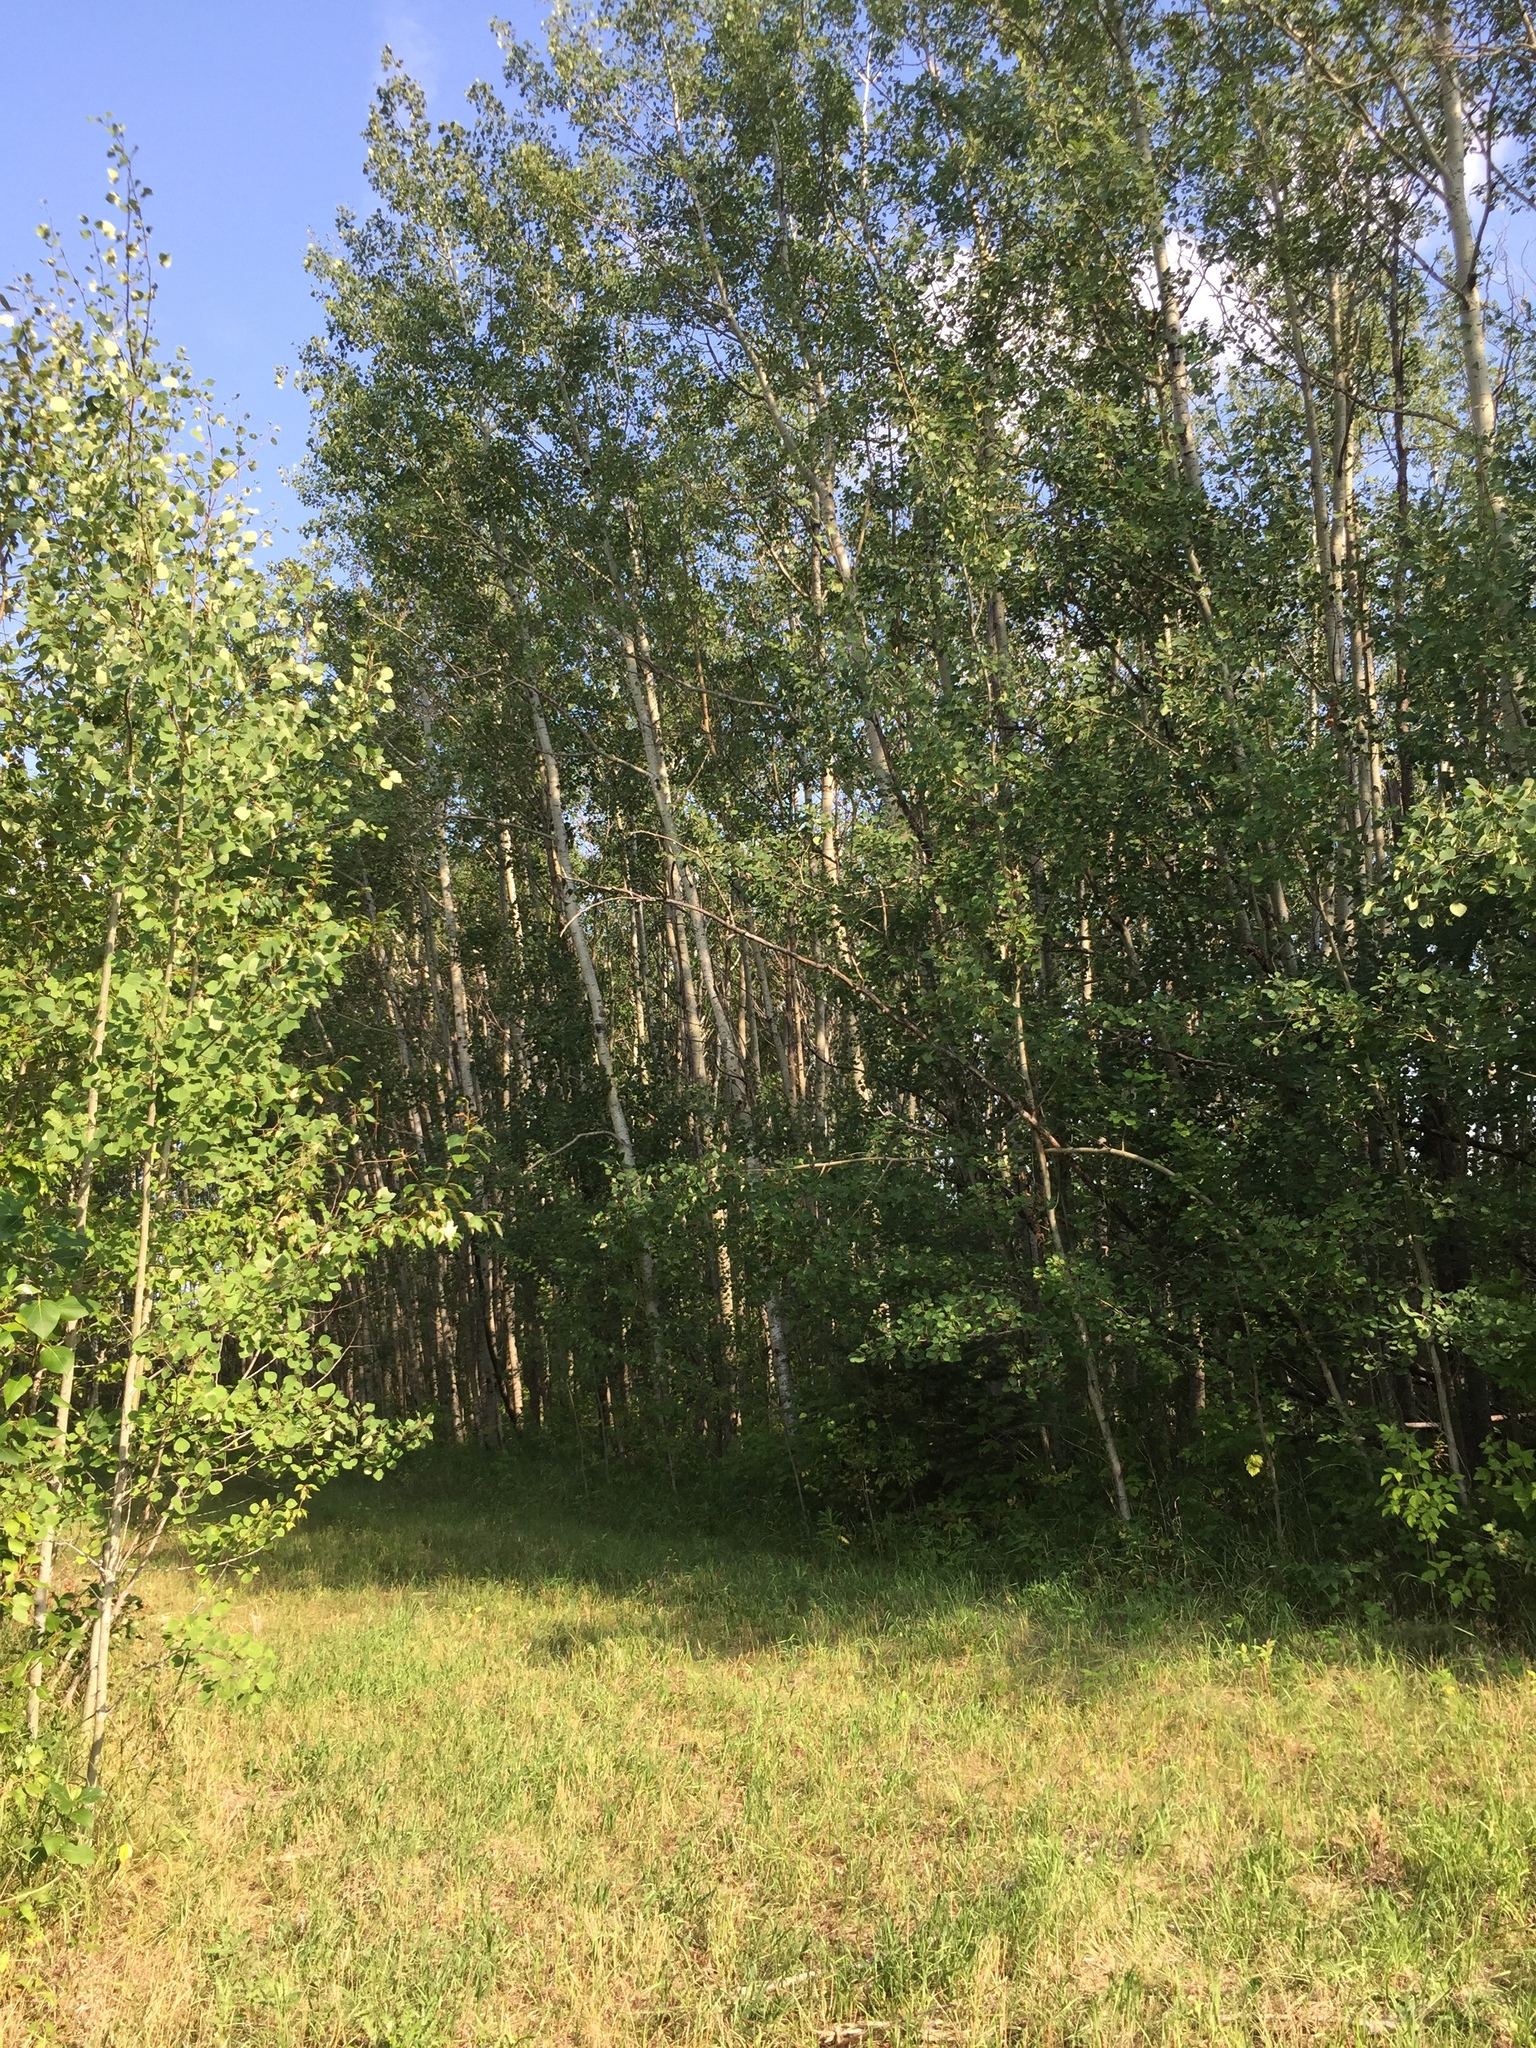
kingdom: Plantae
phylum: Tracheophyta
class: Magnoliopsida
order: Malpighiales
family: Salicaceae
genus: Populus
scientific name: Populus tremuloides
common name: Quaking aspen
